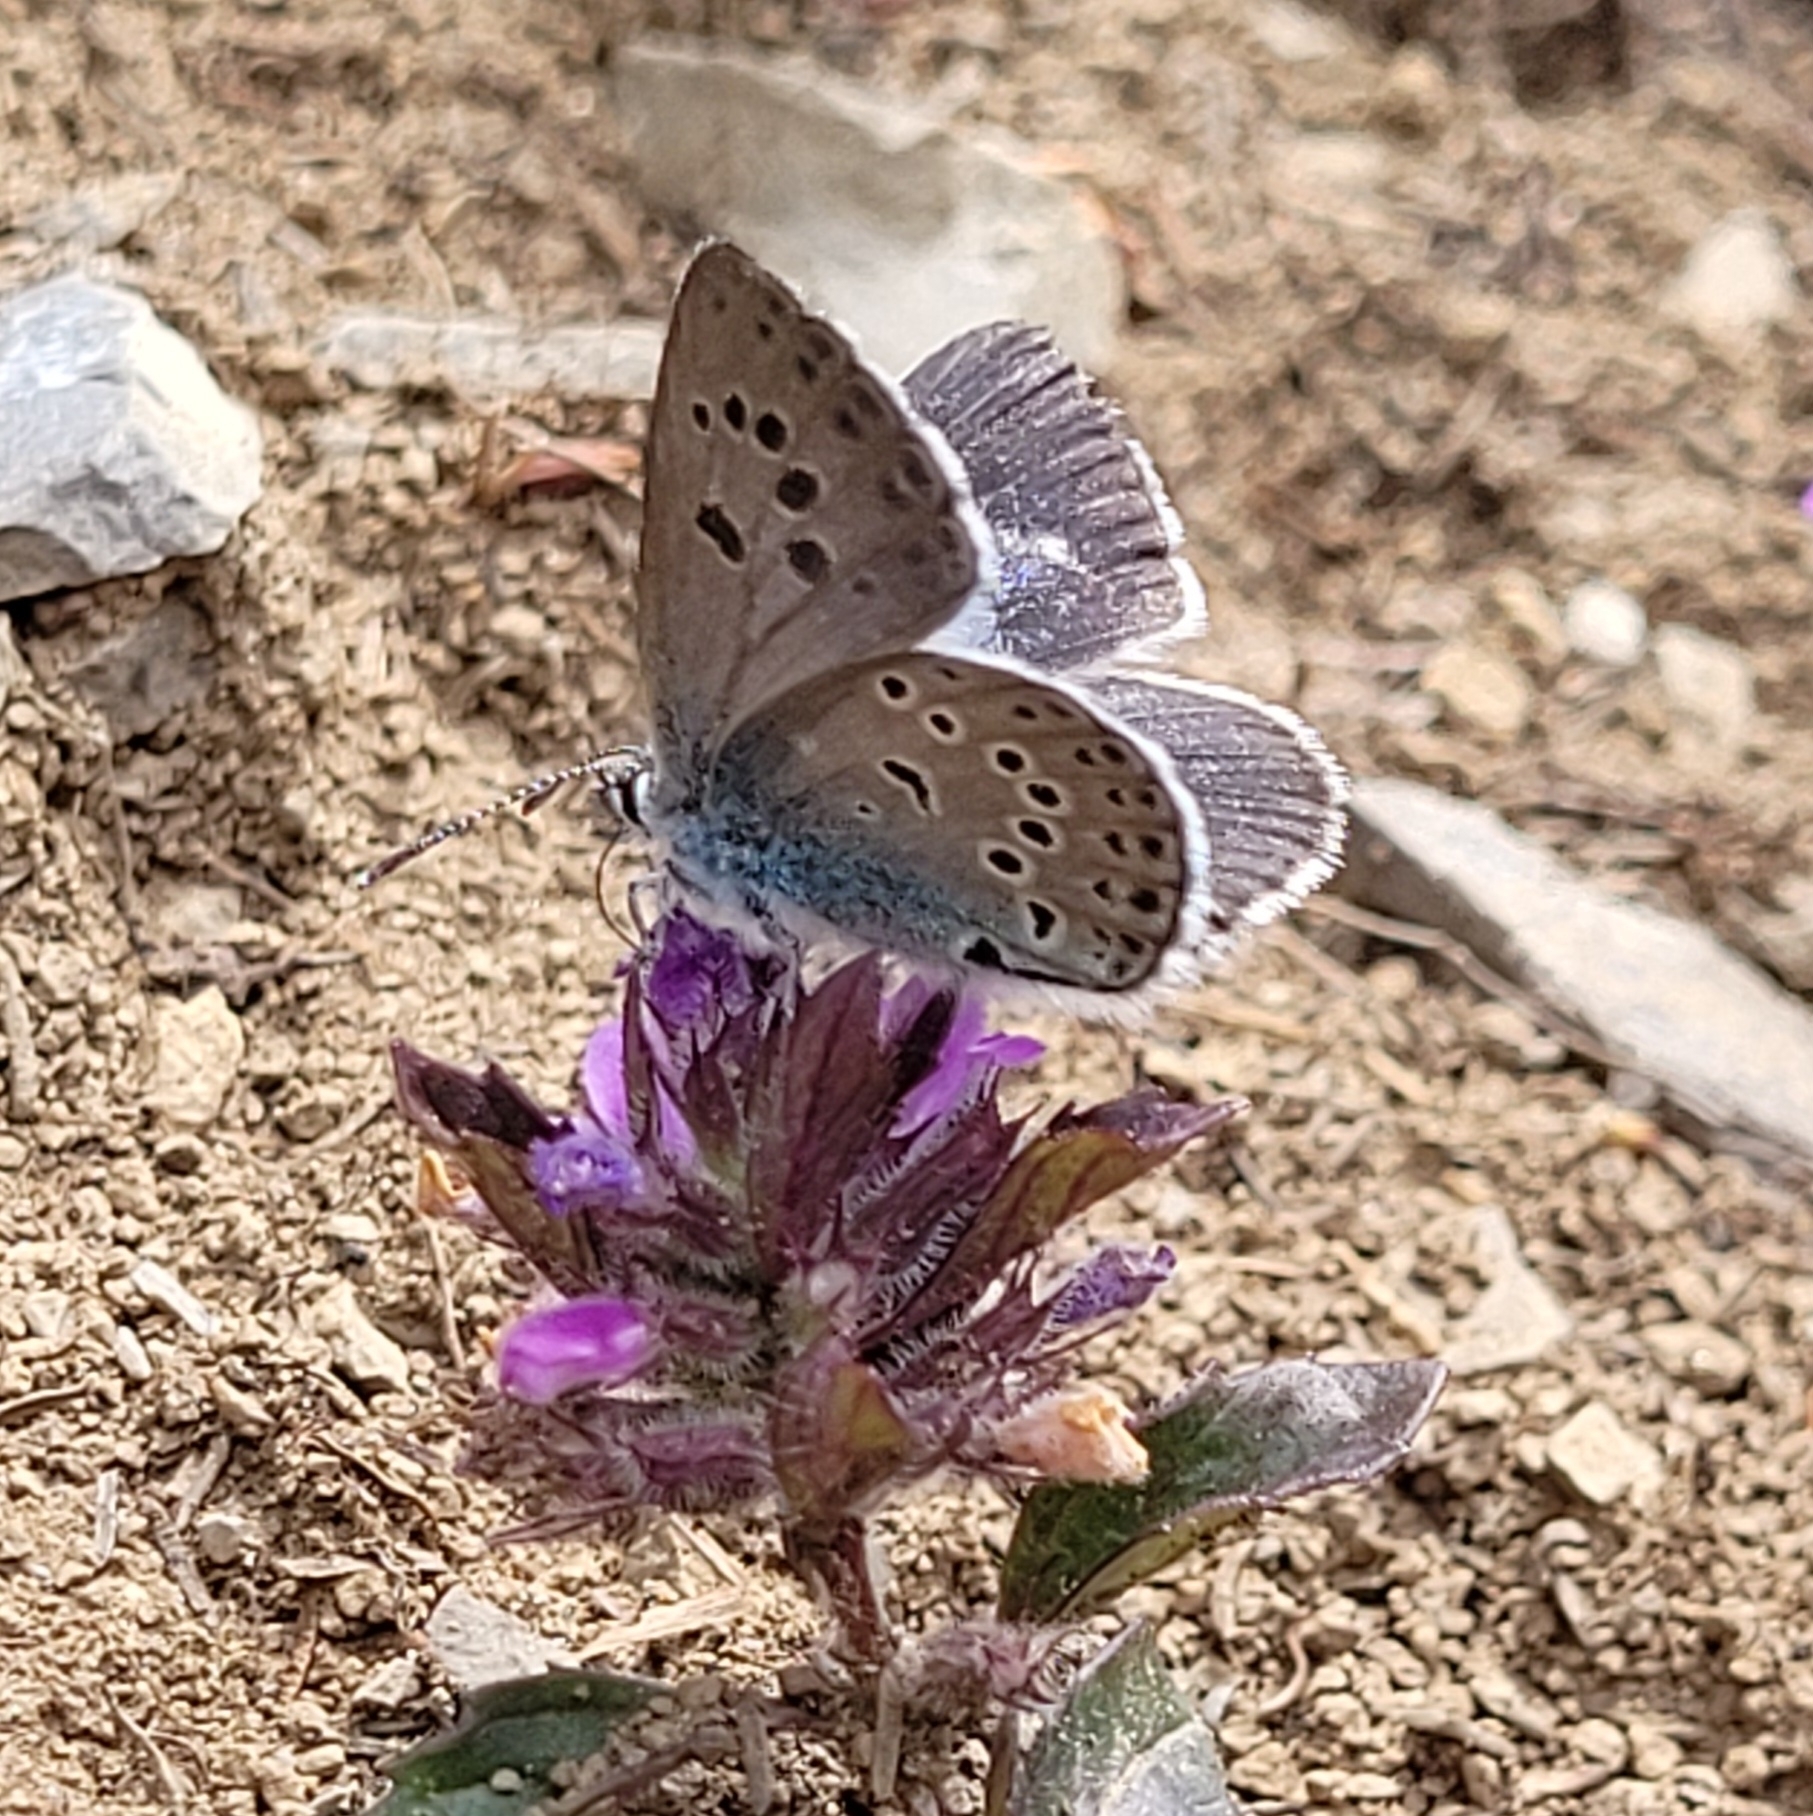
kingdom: Animalia
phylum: Arthropoda
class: Insecta
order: Lepidoptera
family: Lycaenidae
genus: Maculinea
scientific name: Maculinea arion
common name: Large blue
